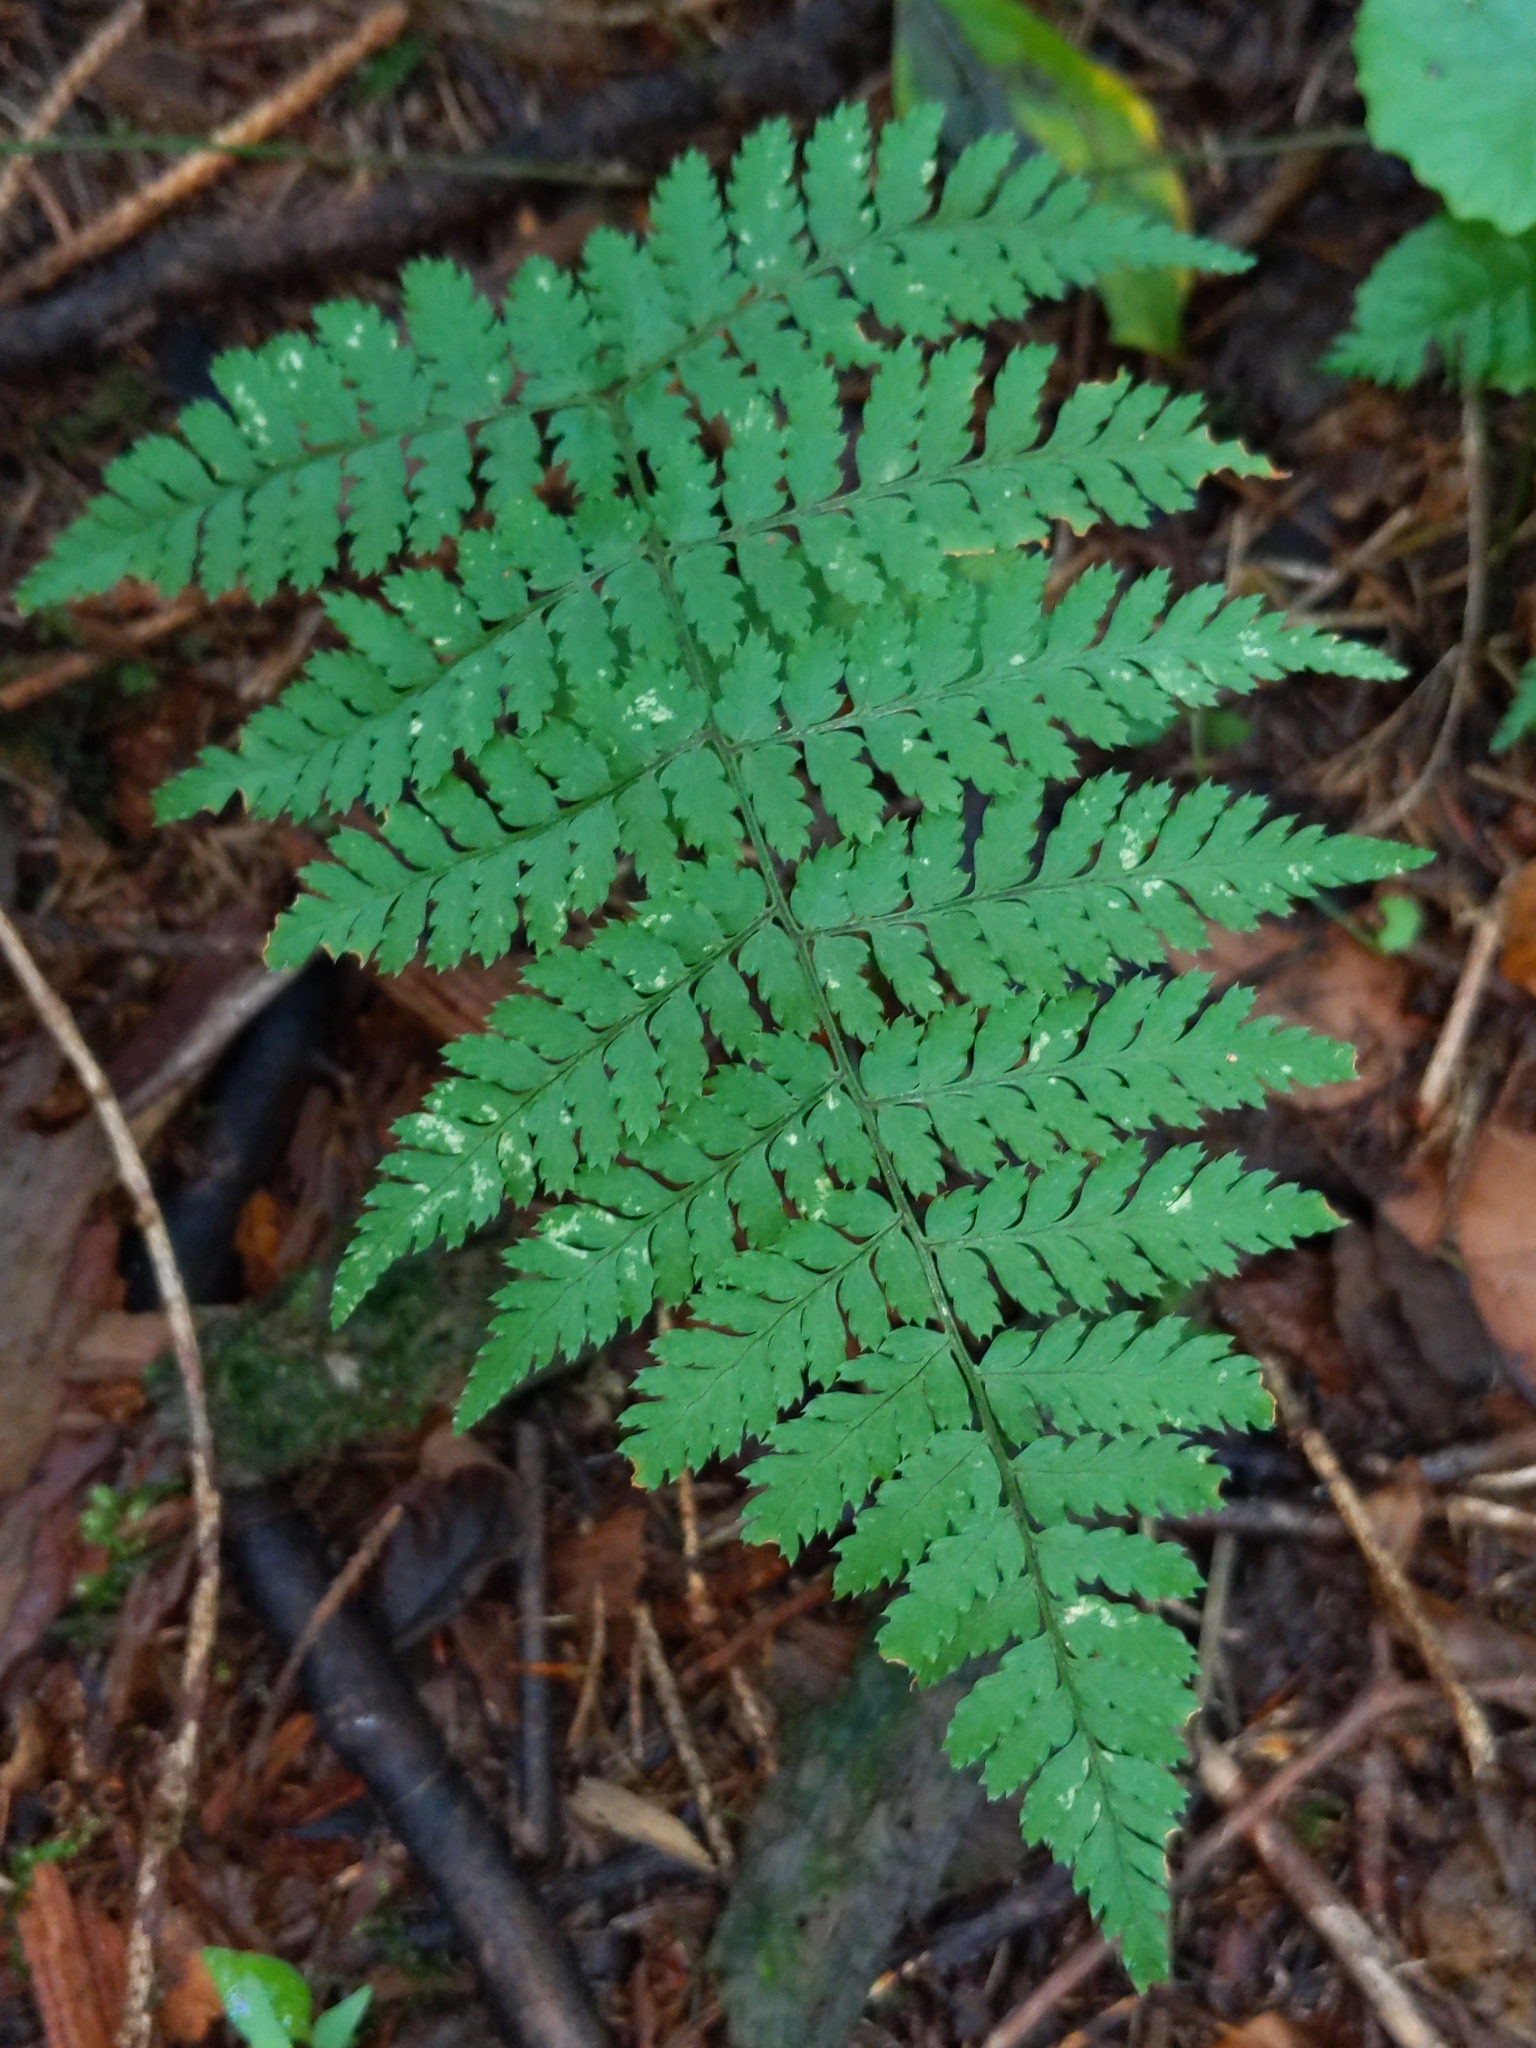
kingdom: Plantae
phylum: Tracheophyta
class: Polypodiopsida
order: Polypodiales
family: Dryopteridaceae
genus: Dryopteris
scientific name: Dryopteris intermedia
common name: Evergreen wood fern
